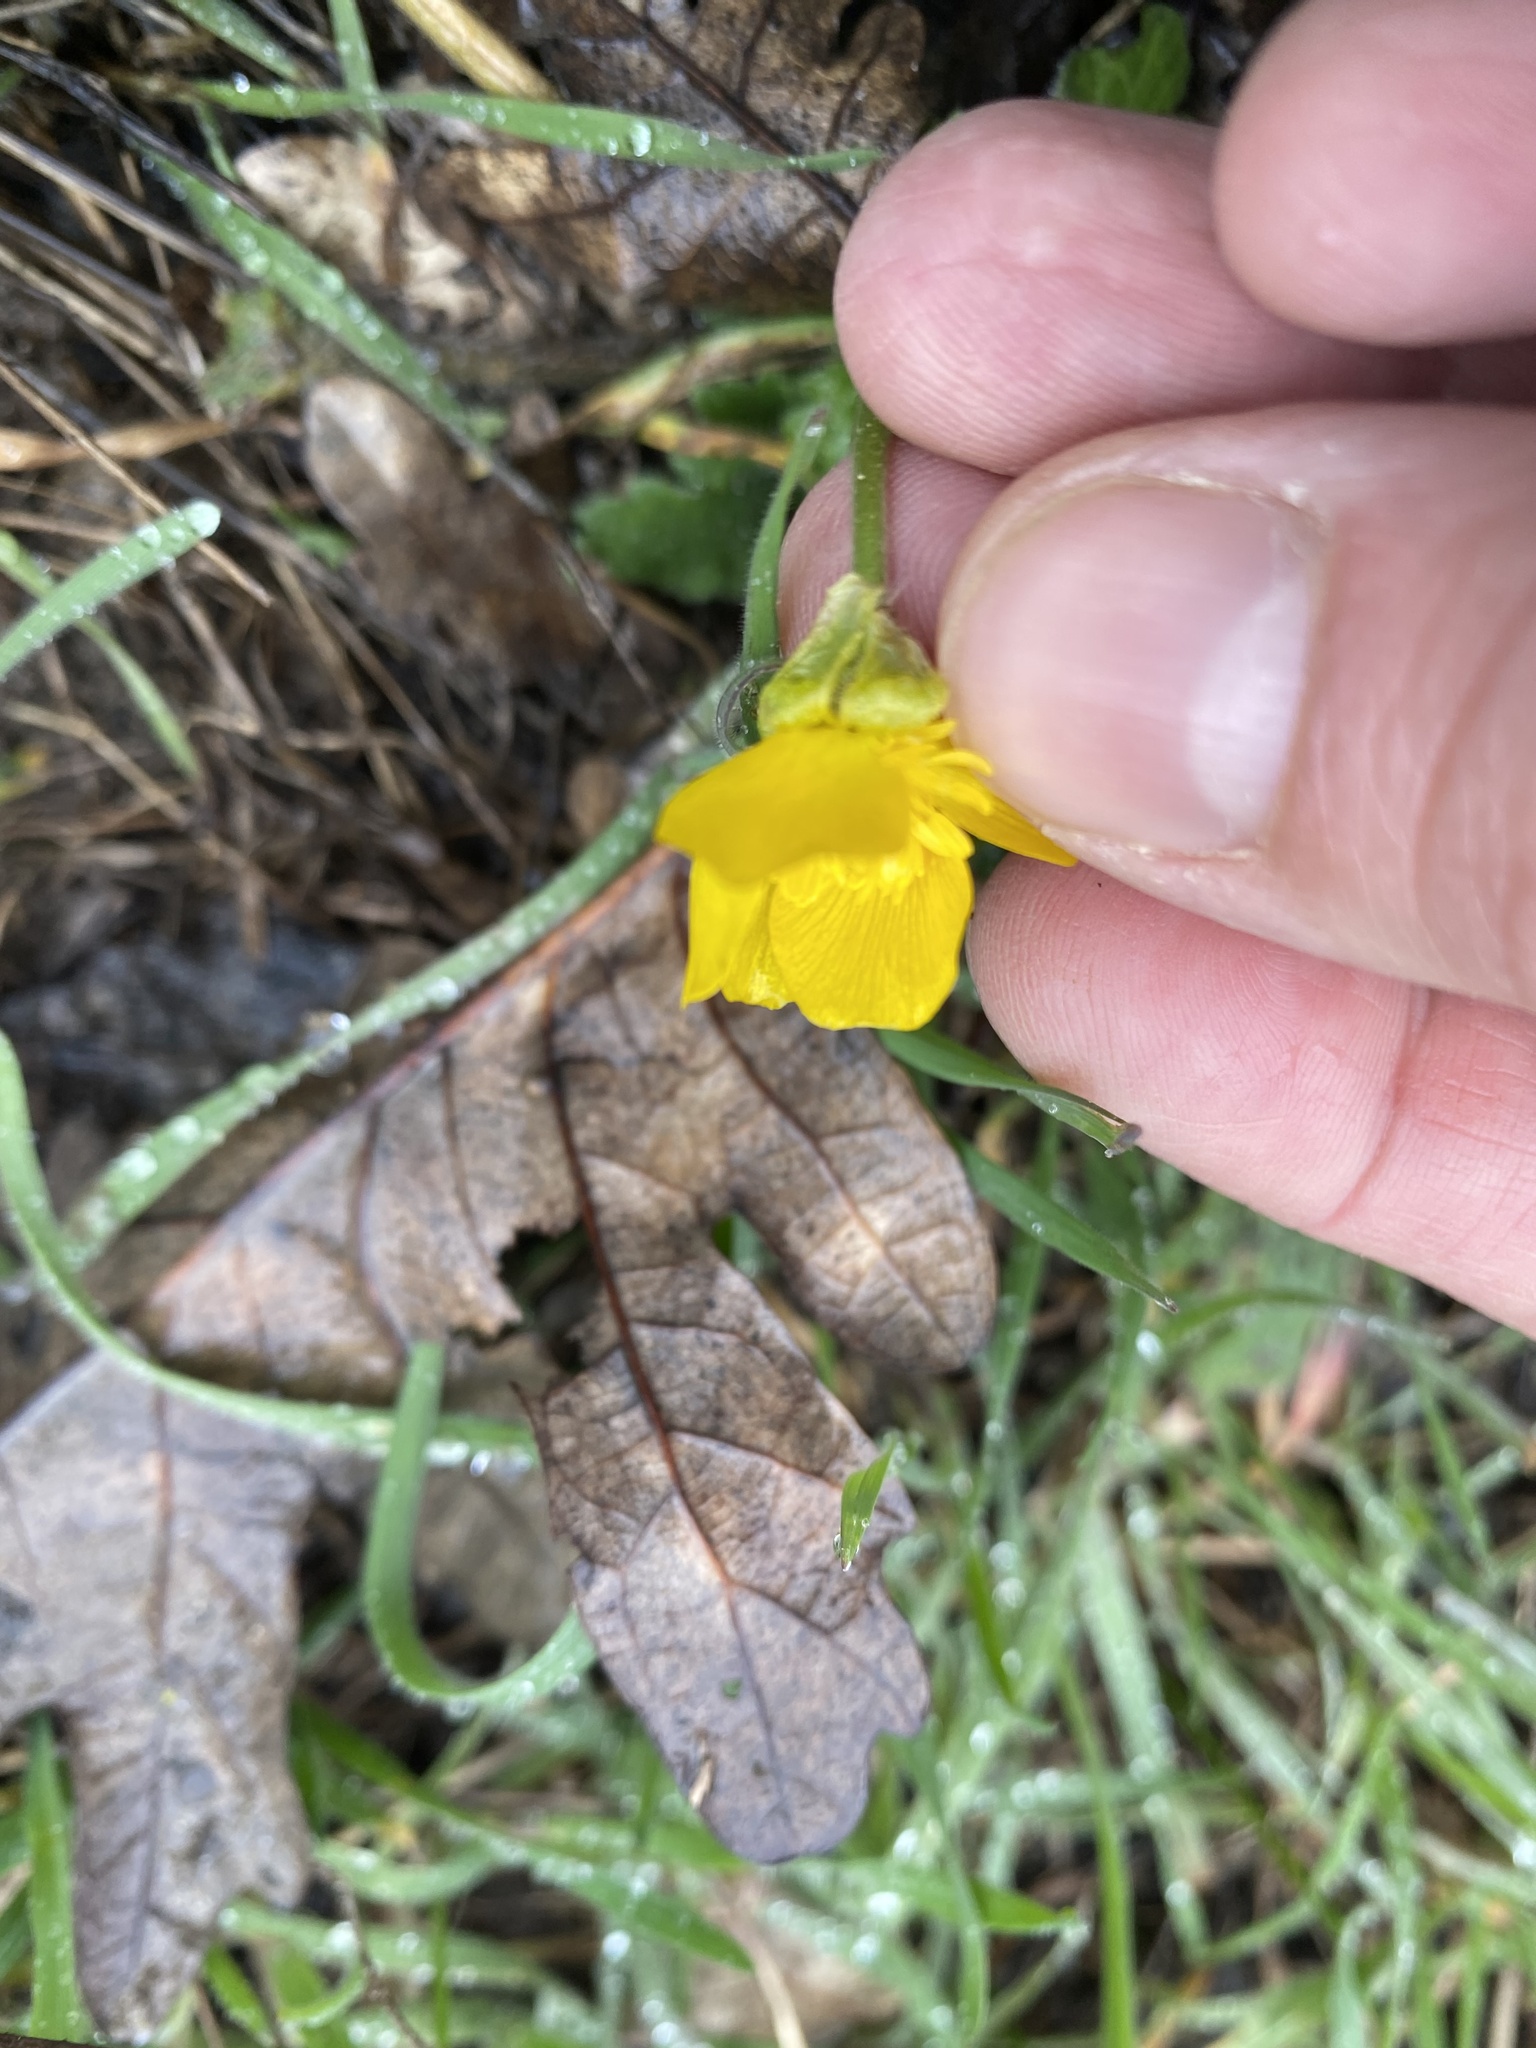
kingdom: Plantae
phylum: Tracheophyta
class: Magnoliopsida
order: Ranunculales
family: Ranunculaceae
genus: Ranunculus
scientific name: Ranunculus constantinopolitanus
